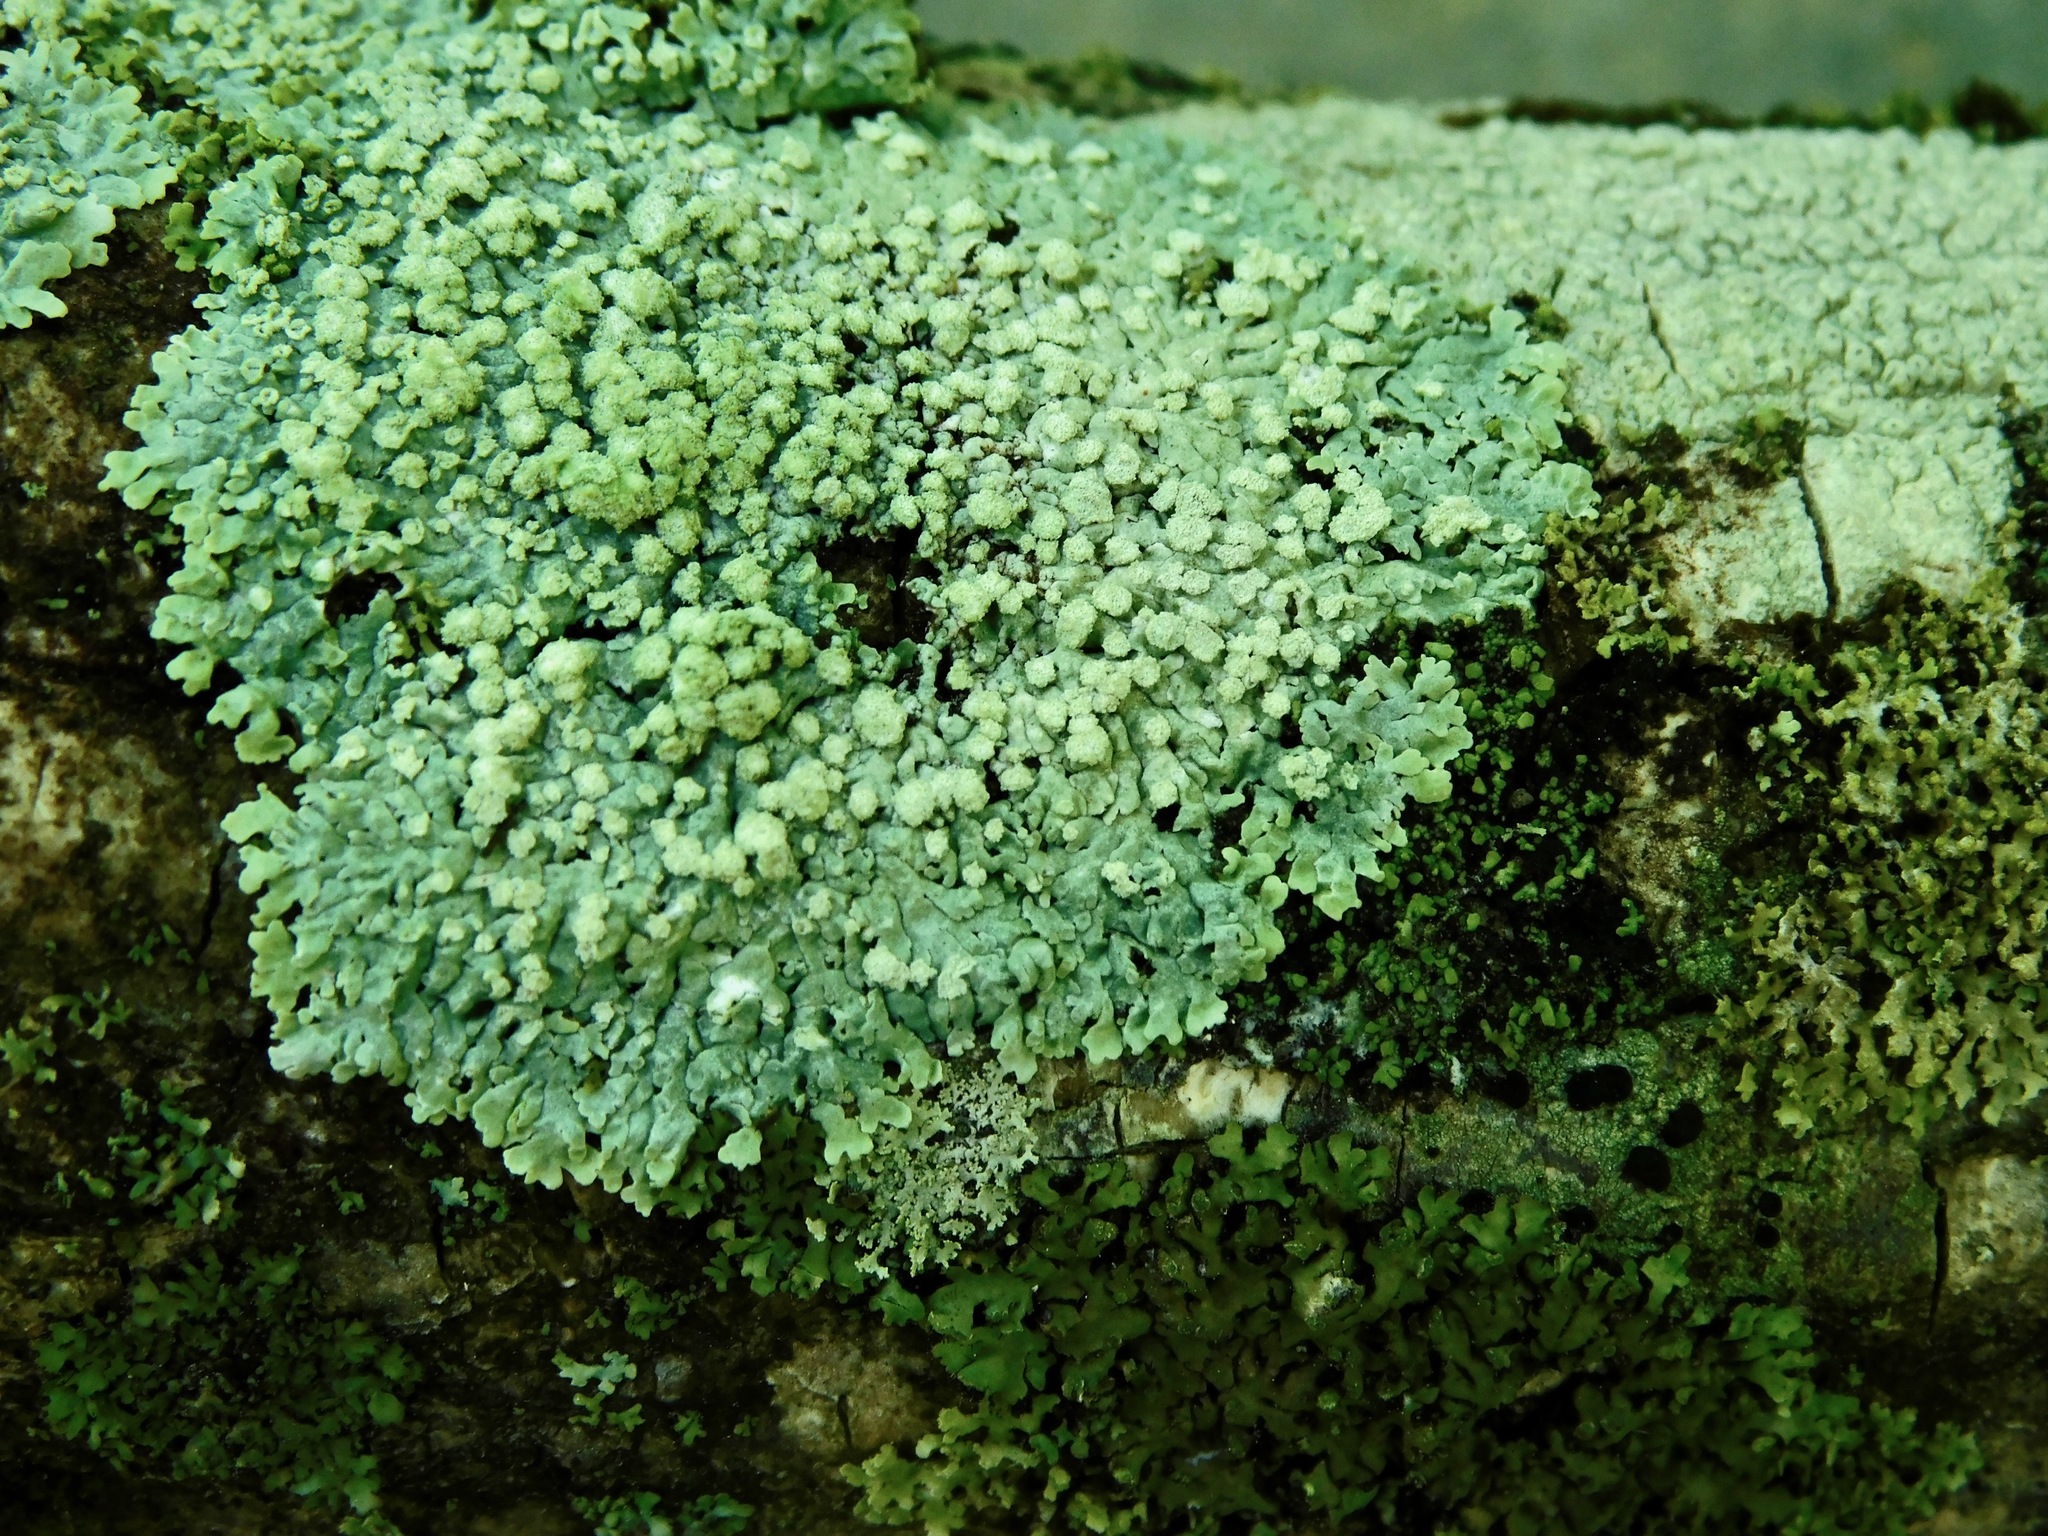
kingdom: Fungi
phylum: Ascomycota
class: Lecanoromycetes
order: Caliciales
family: Physciaceae
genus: Physcia
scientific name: Physcia americana
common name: American rosette lichen
